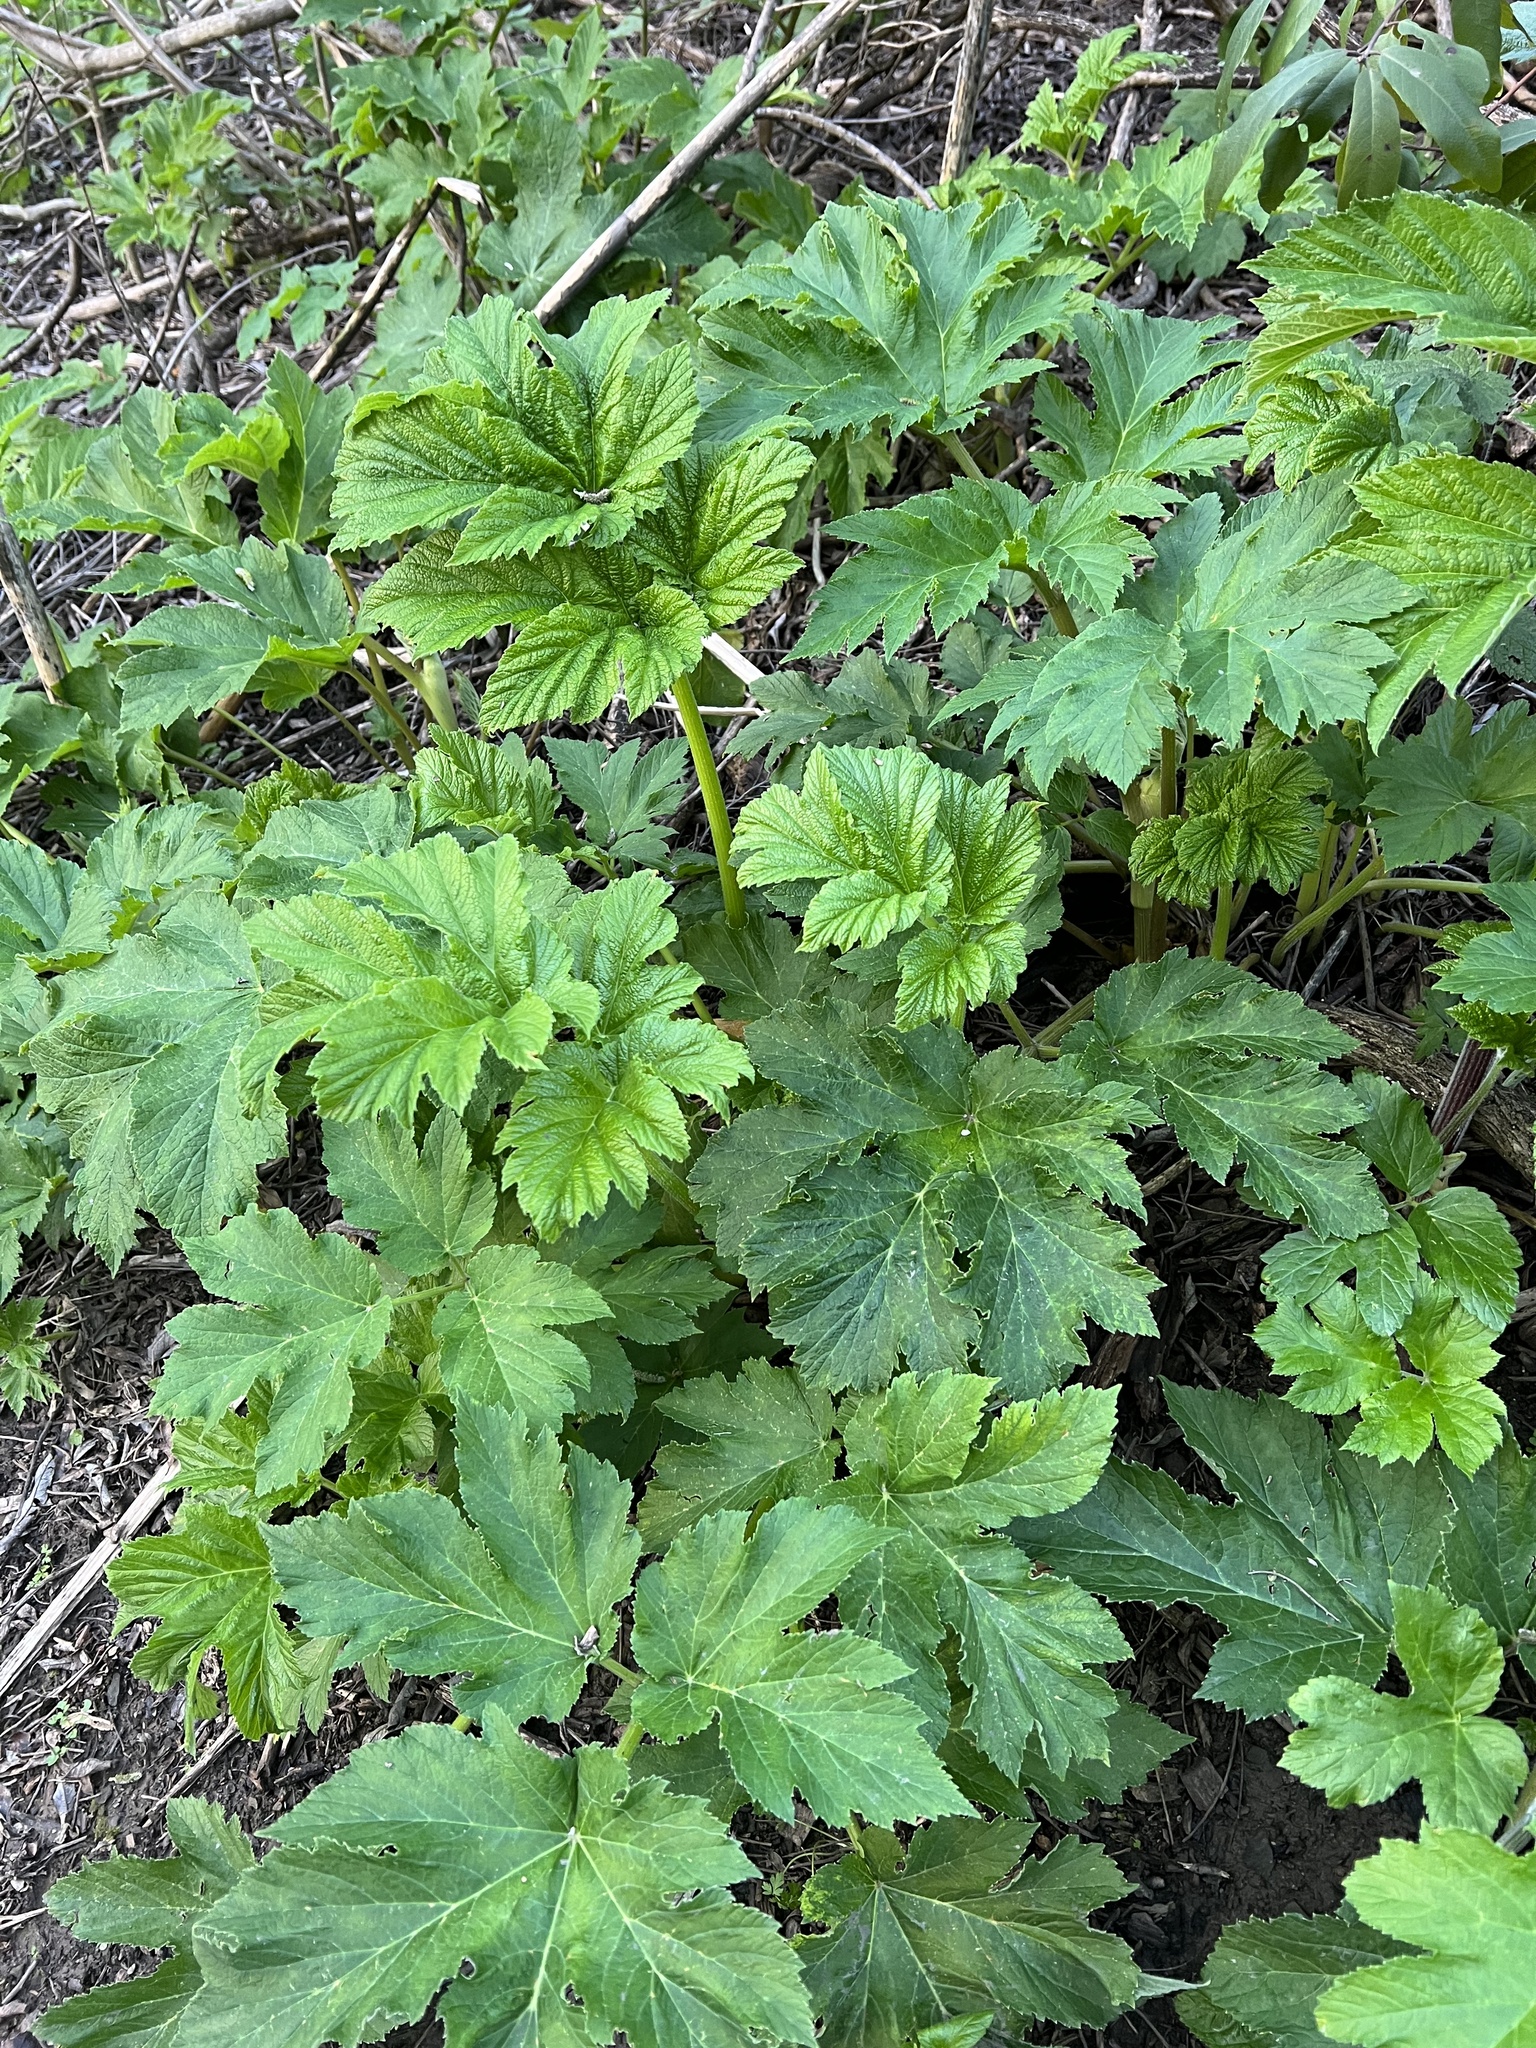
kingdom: Plantae
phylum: Tracheophyta
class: Magnoliopsida
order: Apiales
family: Apiaceae
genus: Heracleum
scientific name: Heracleum maximum
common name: American cow parsnip
